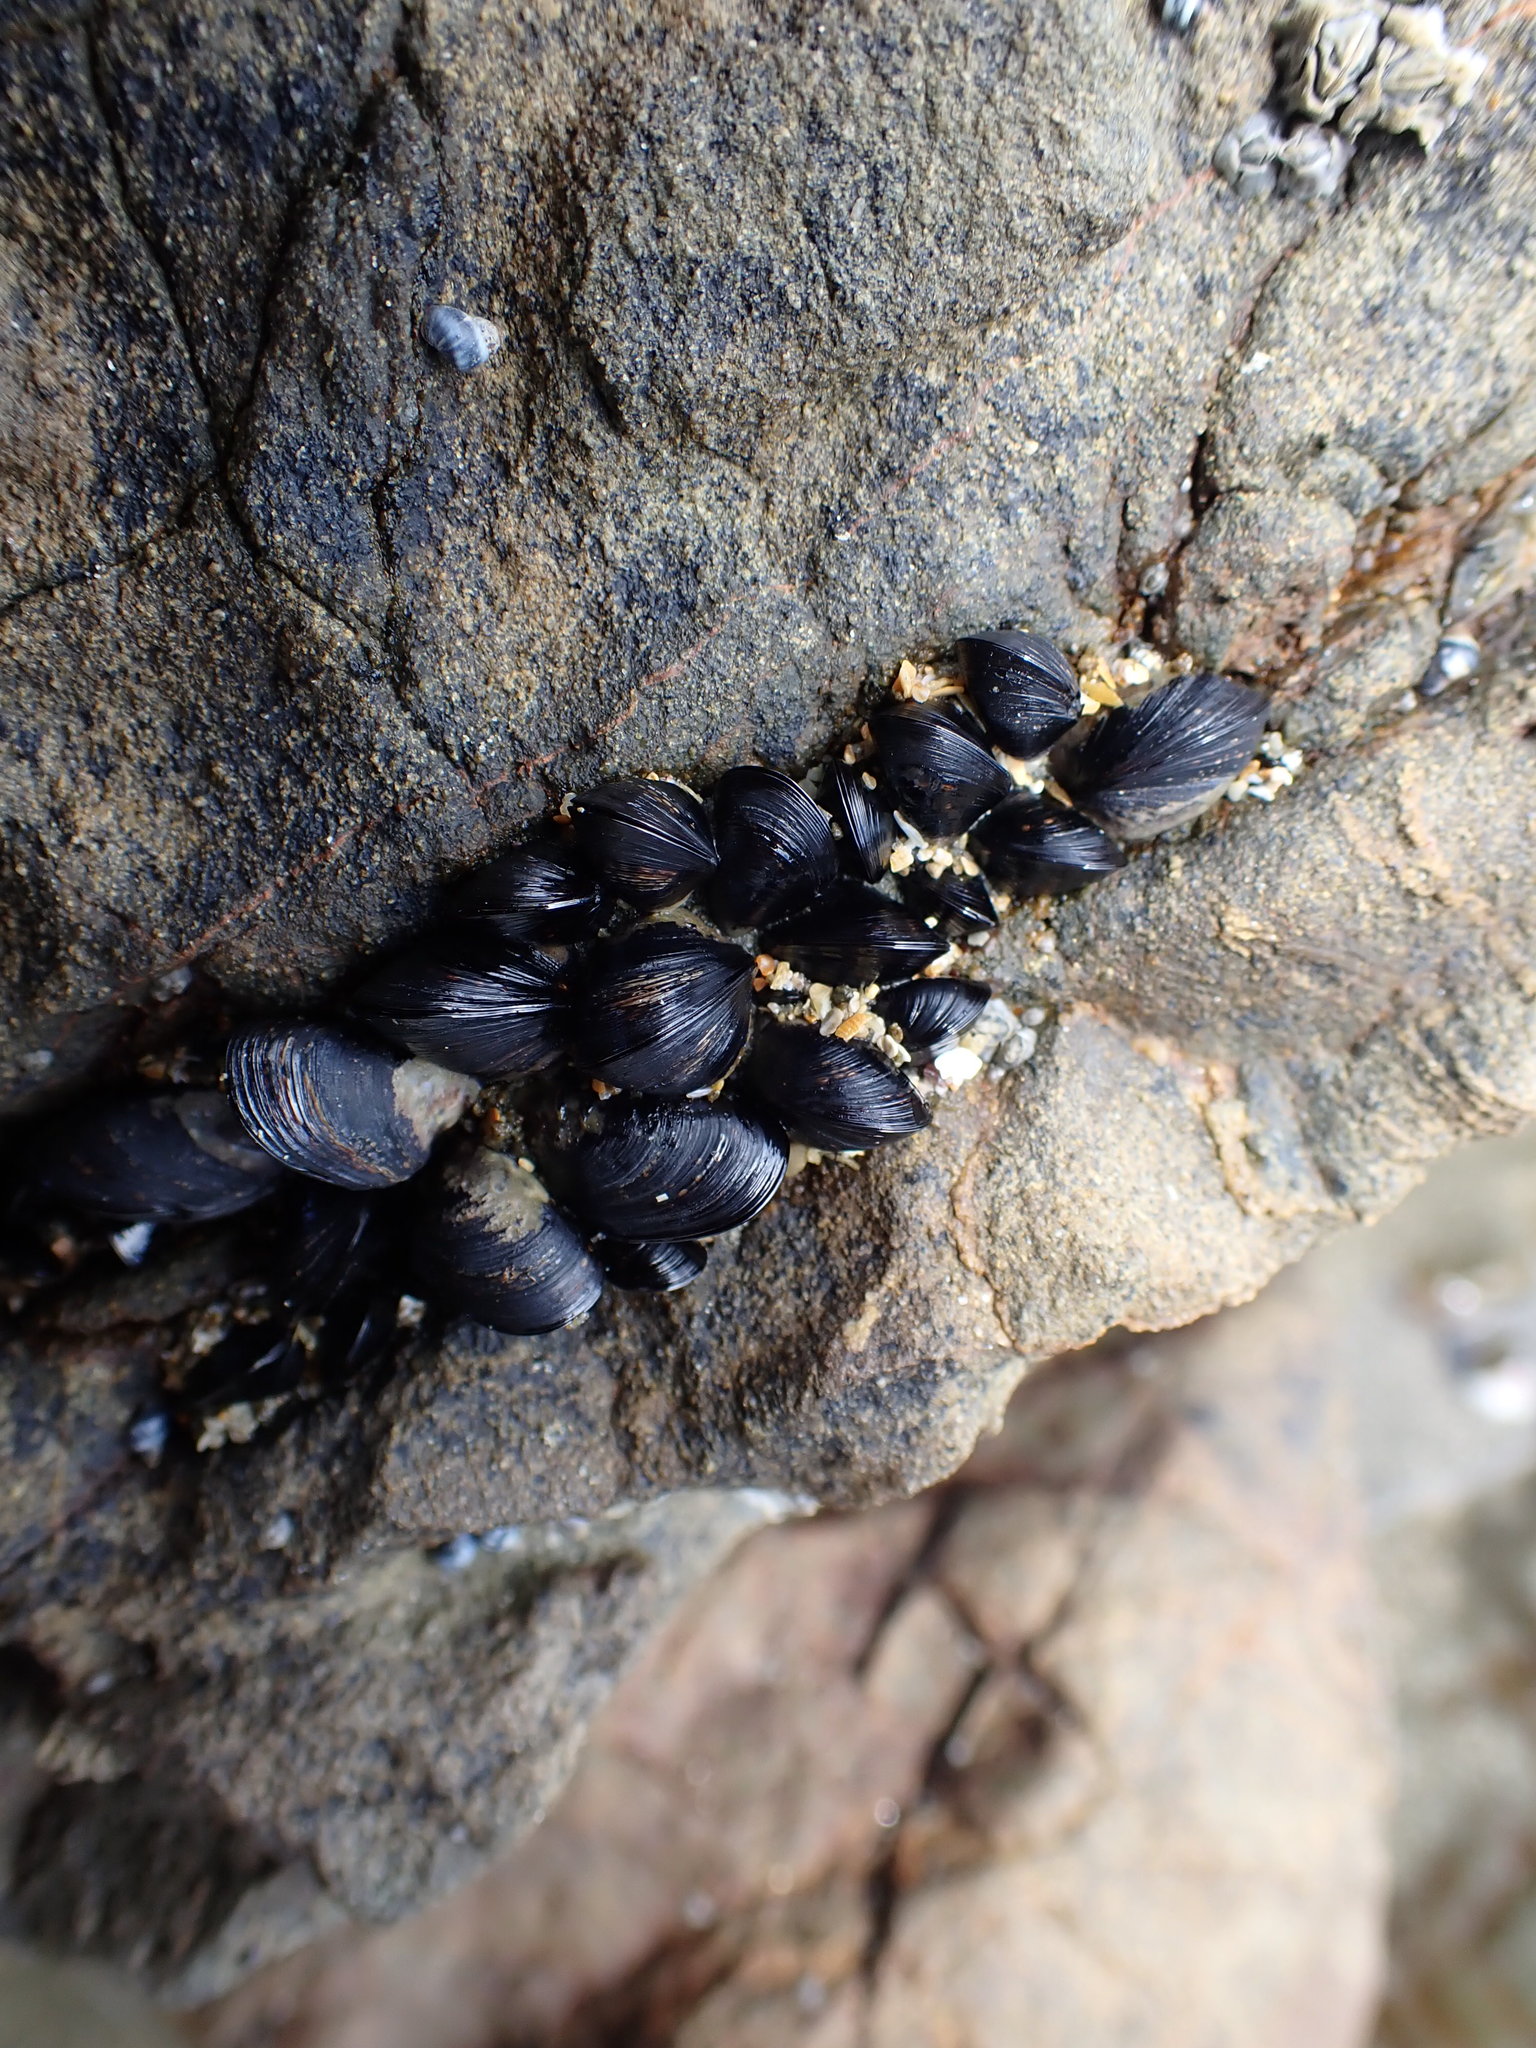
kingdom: Animalia
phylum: Mollusca
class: Bivalvia
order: Mytilida
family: Mytilidae
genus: Xenostrobus
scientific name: Xenostrobus neozelanicus
